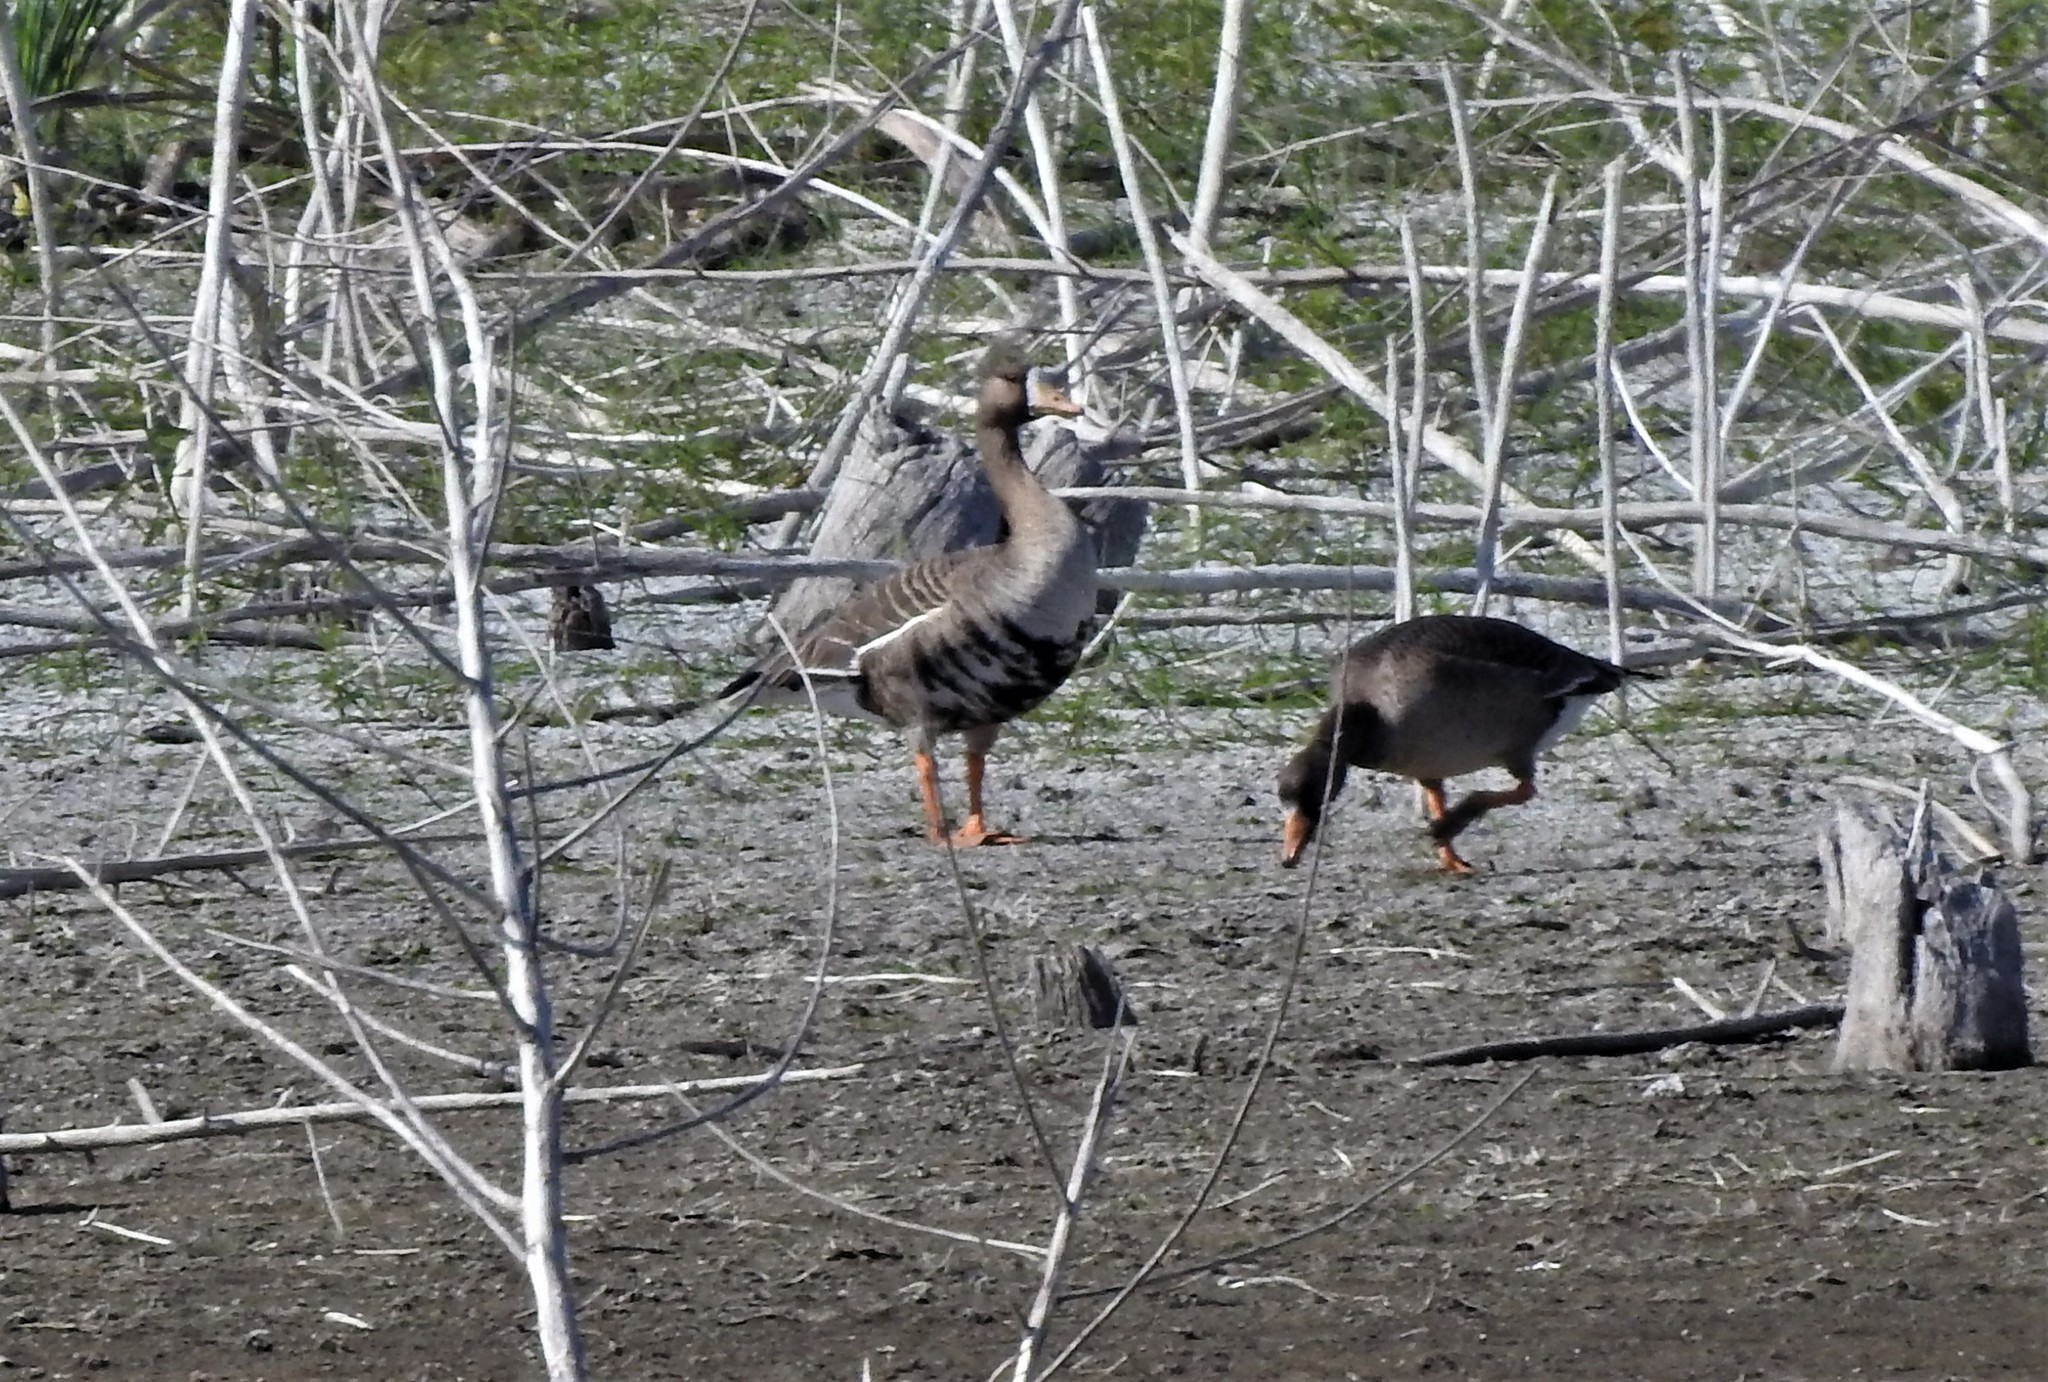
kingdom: Animalia
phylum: Chordata
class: Aves
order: Anseriformes
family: Anatidae
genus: Anser
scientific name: Anser albifrons
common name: Greater white-fronted goose
